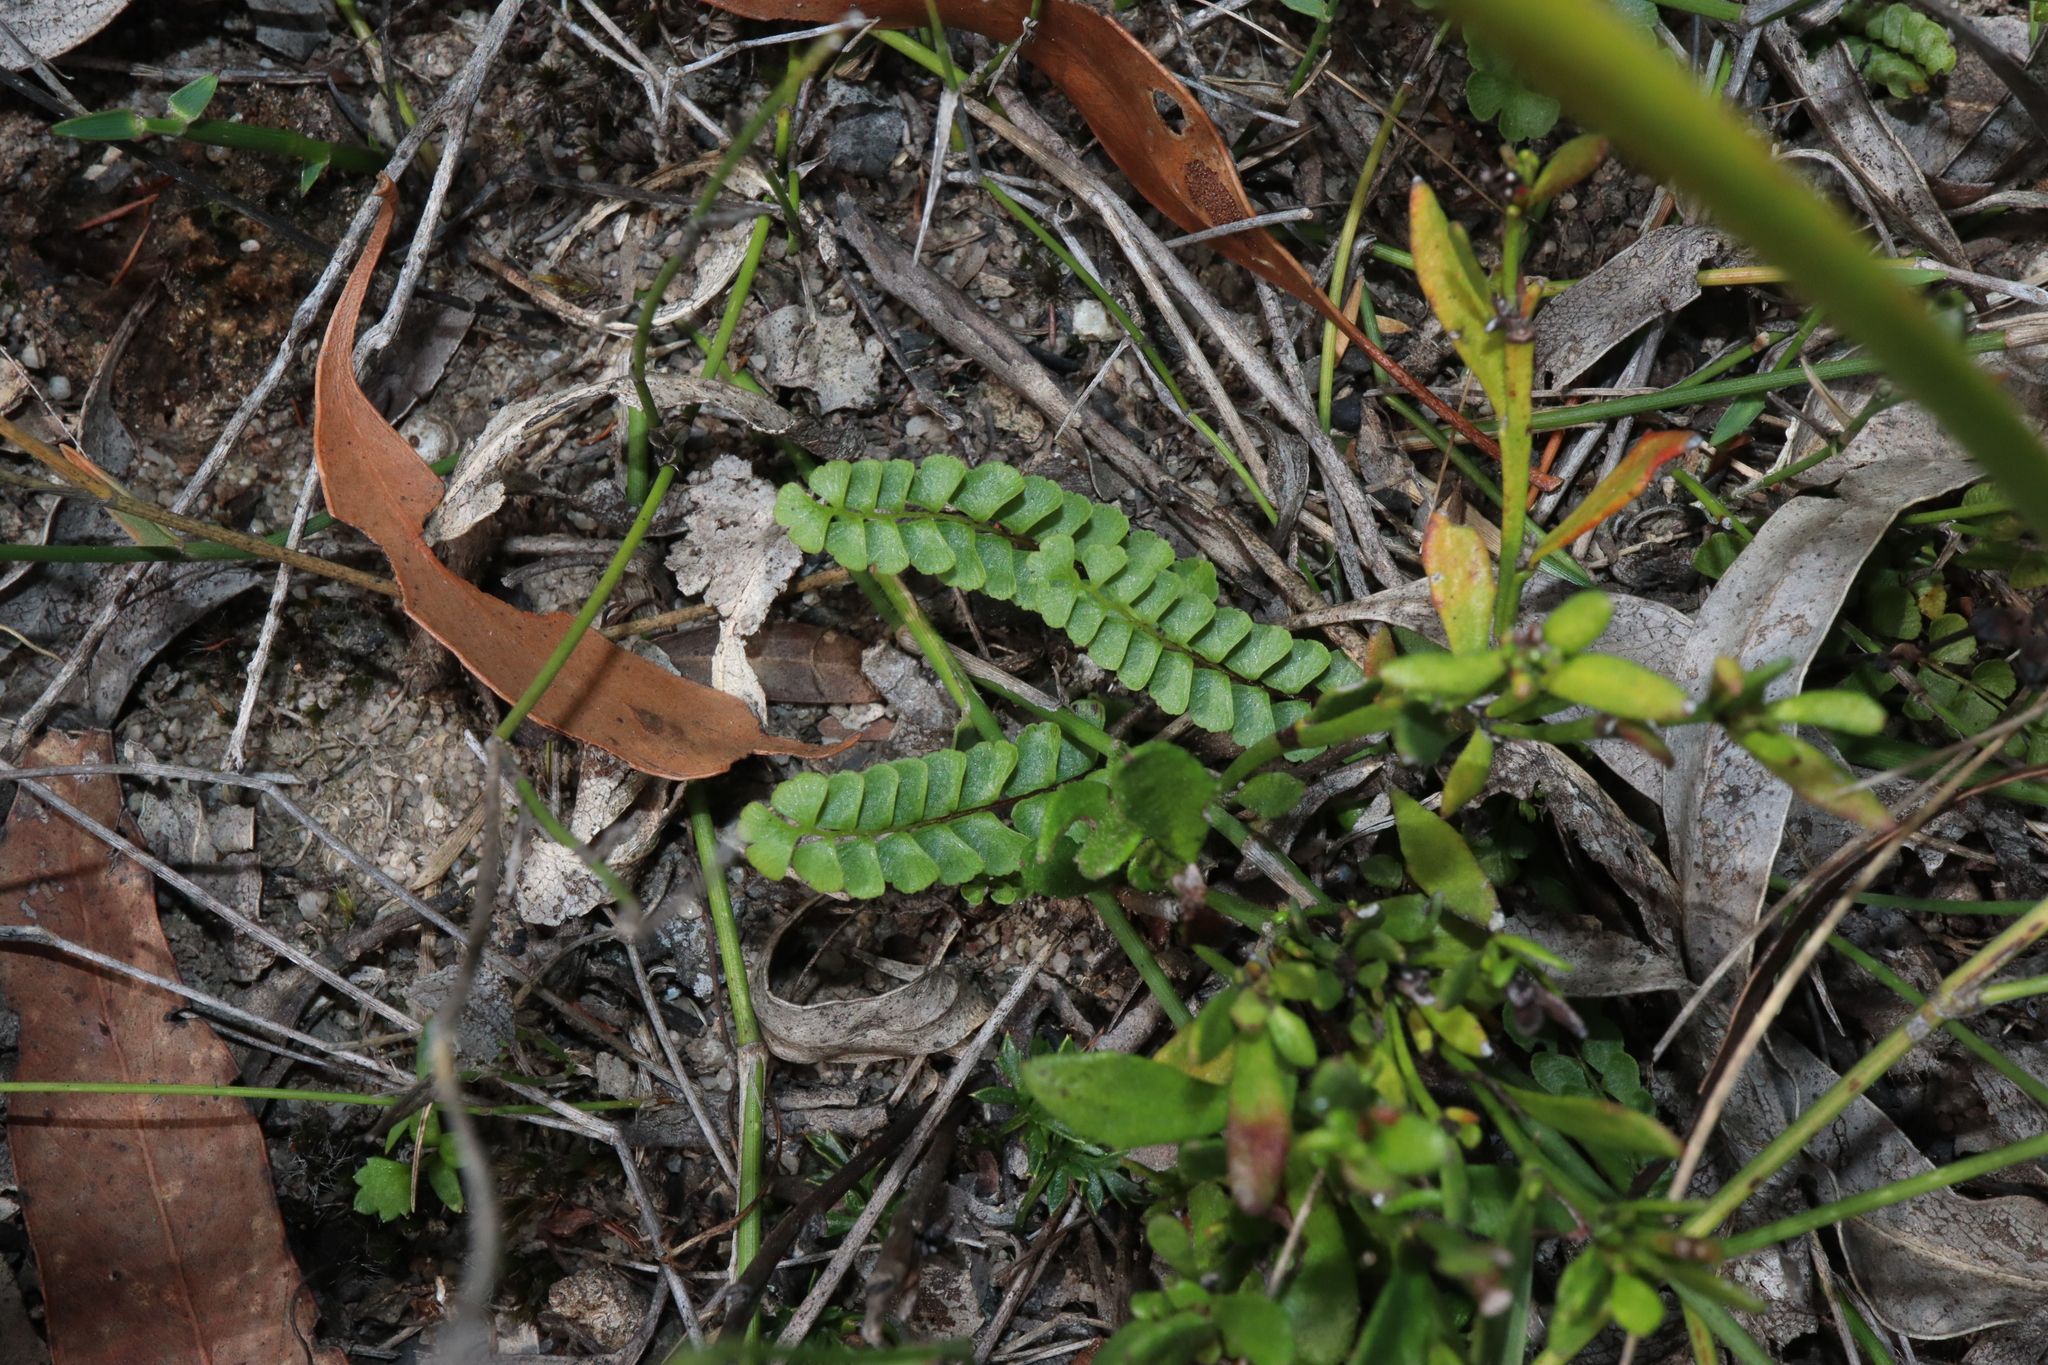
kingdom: Plantae
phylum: Tracheophyta
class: Polypodiopsida
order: Polypodiales
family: Lindsaeaceae
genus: Lindsaea
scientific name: Lindsaea linearis
